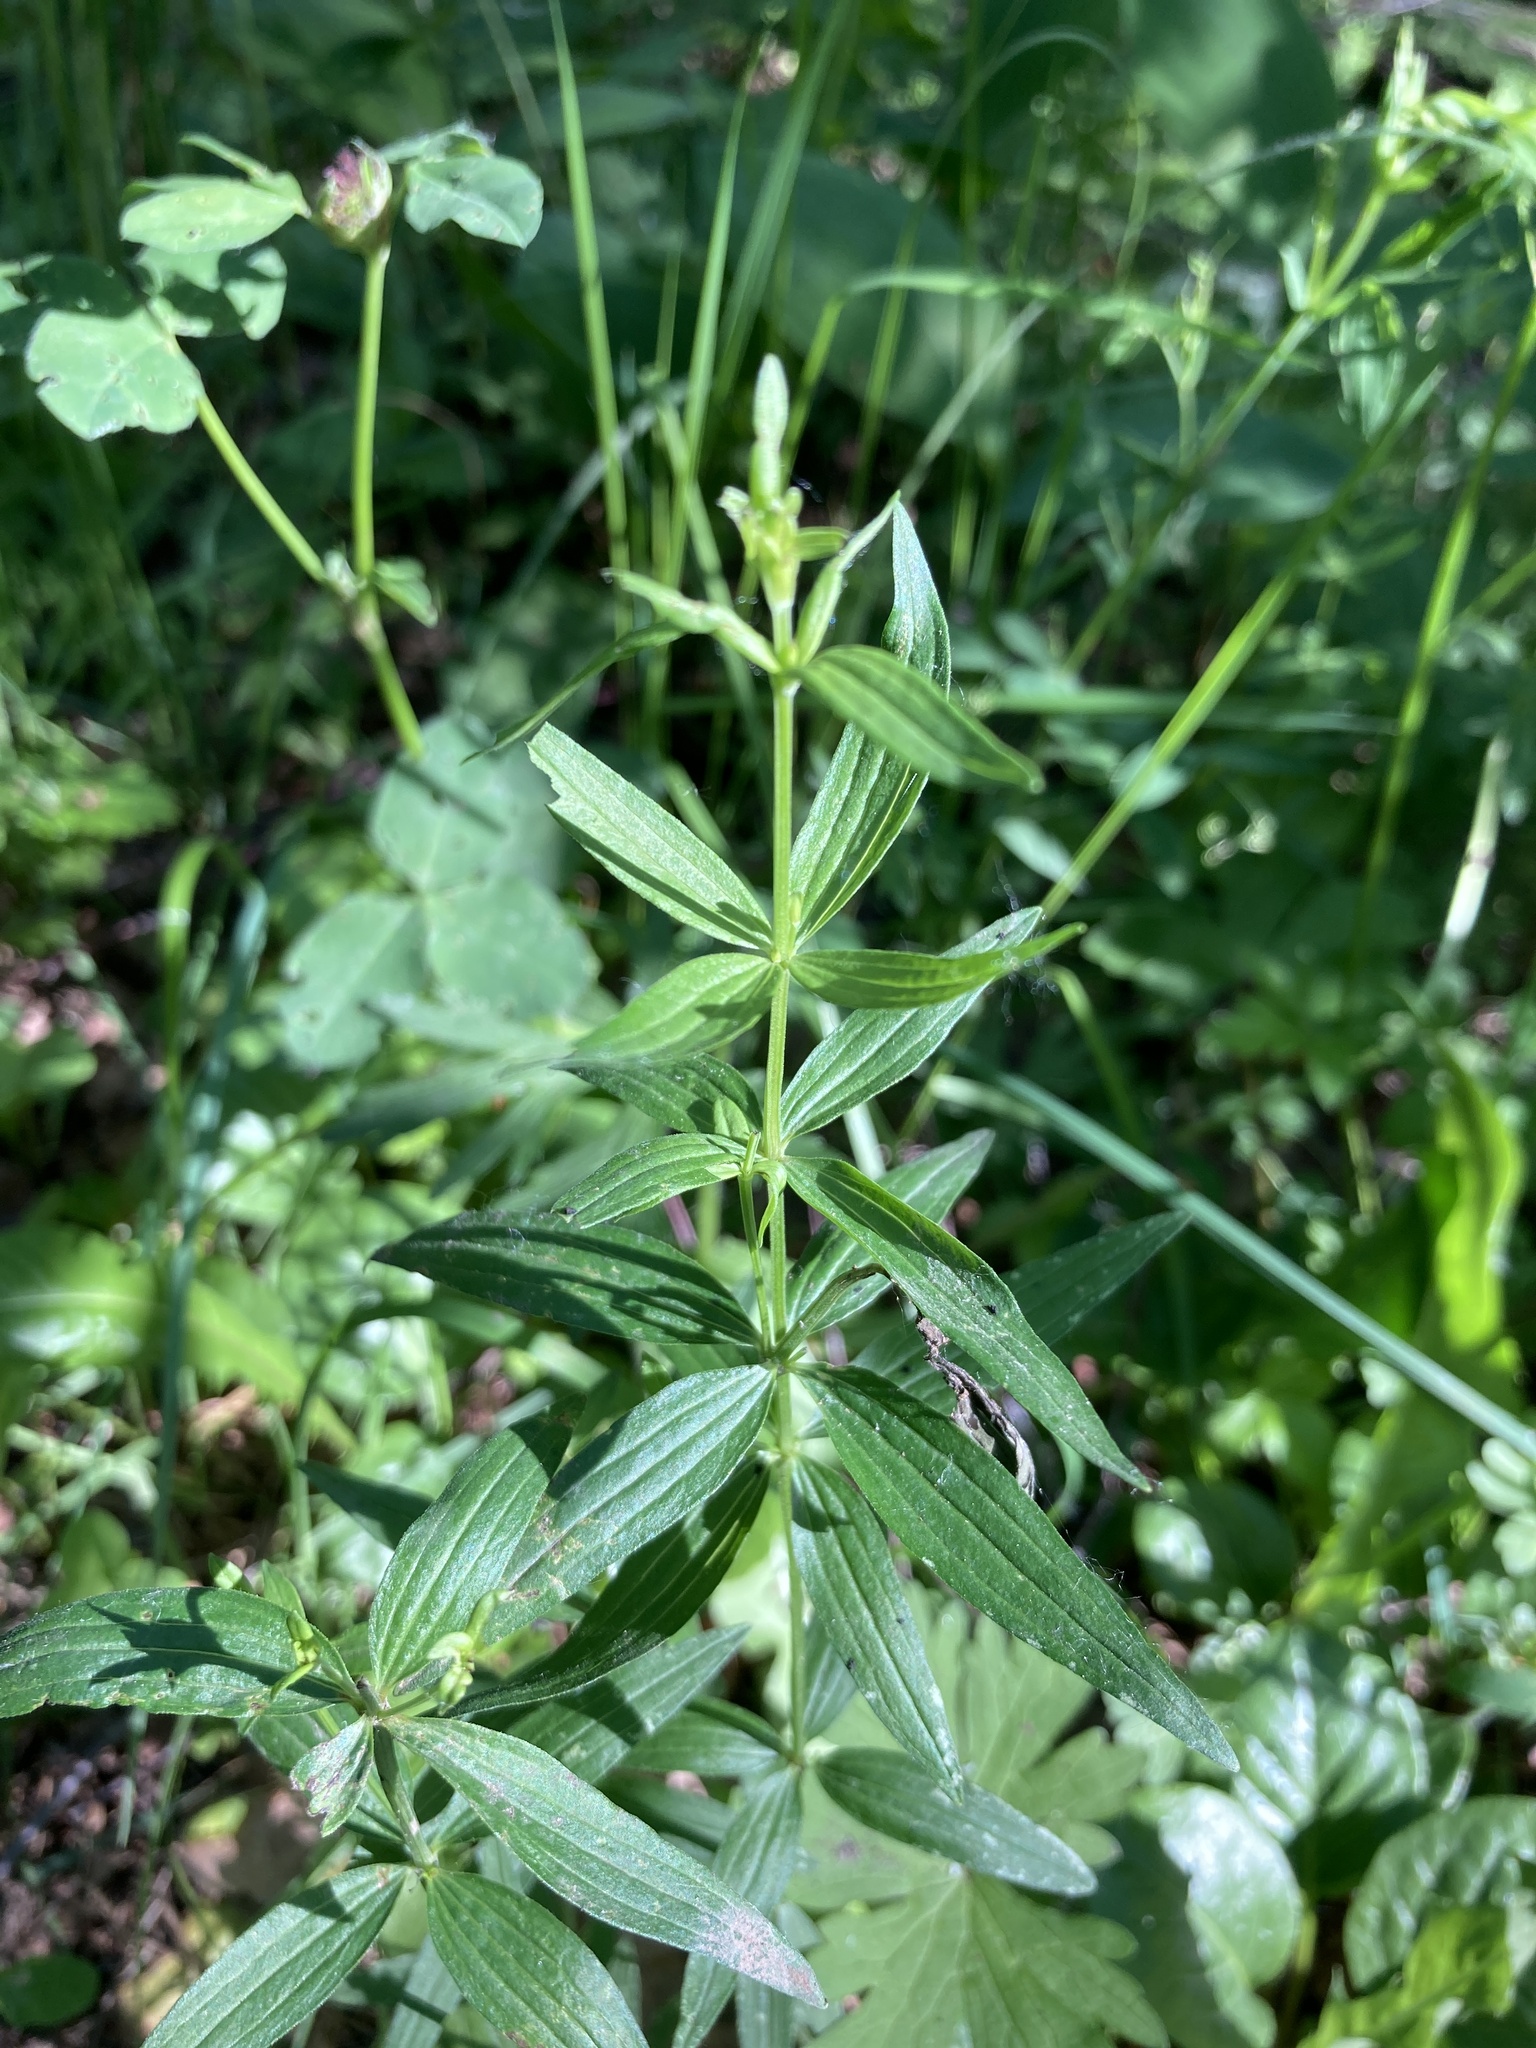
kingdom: Plantae
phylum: Tracheophyta
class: Magnoliopsida
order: Gentianales
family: Rubiaceae
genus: Galium
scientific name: Galium boreale
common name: Northern bedstraw
